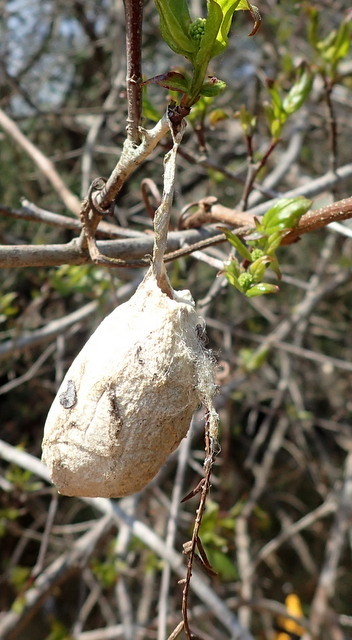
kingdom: Animalia
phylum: Arthropoda
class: Insecta
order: Lepidoptera
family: Saturniidae
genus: Antheraea
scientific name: Antheraea polyphemus
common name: Polyphemus moth
